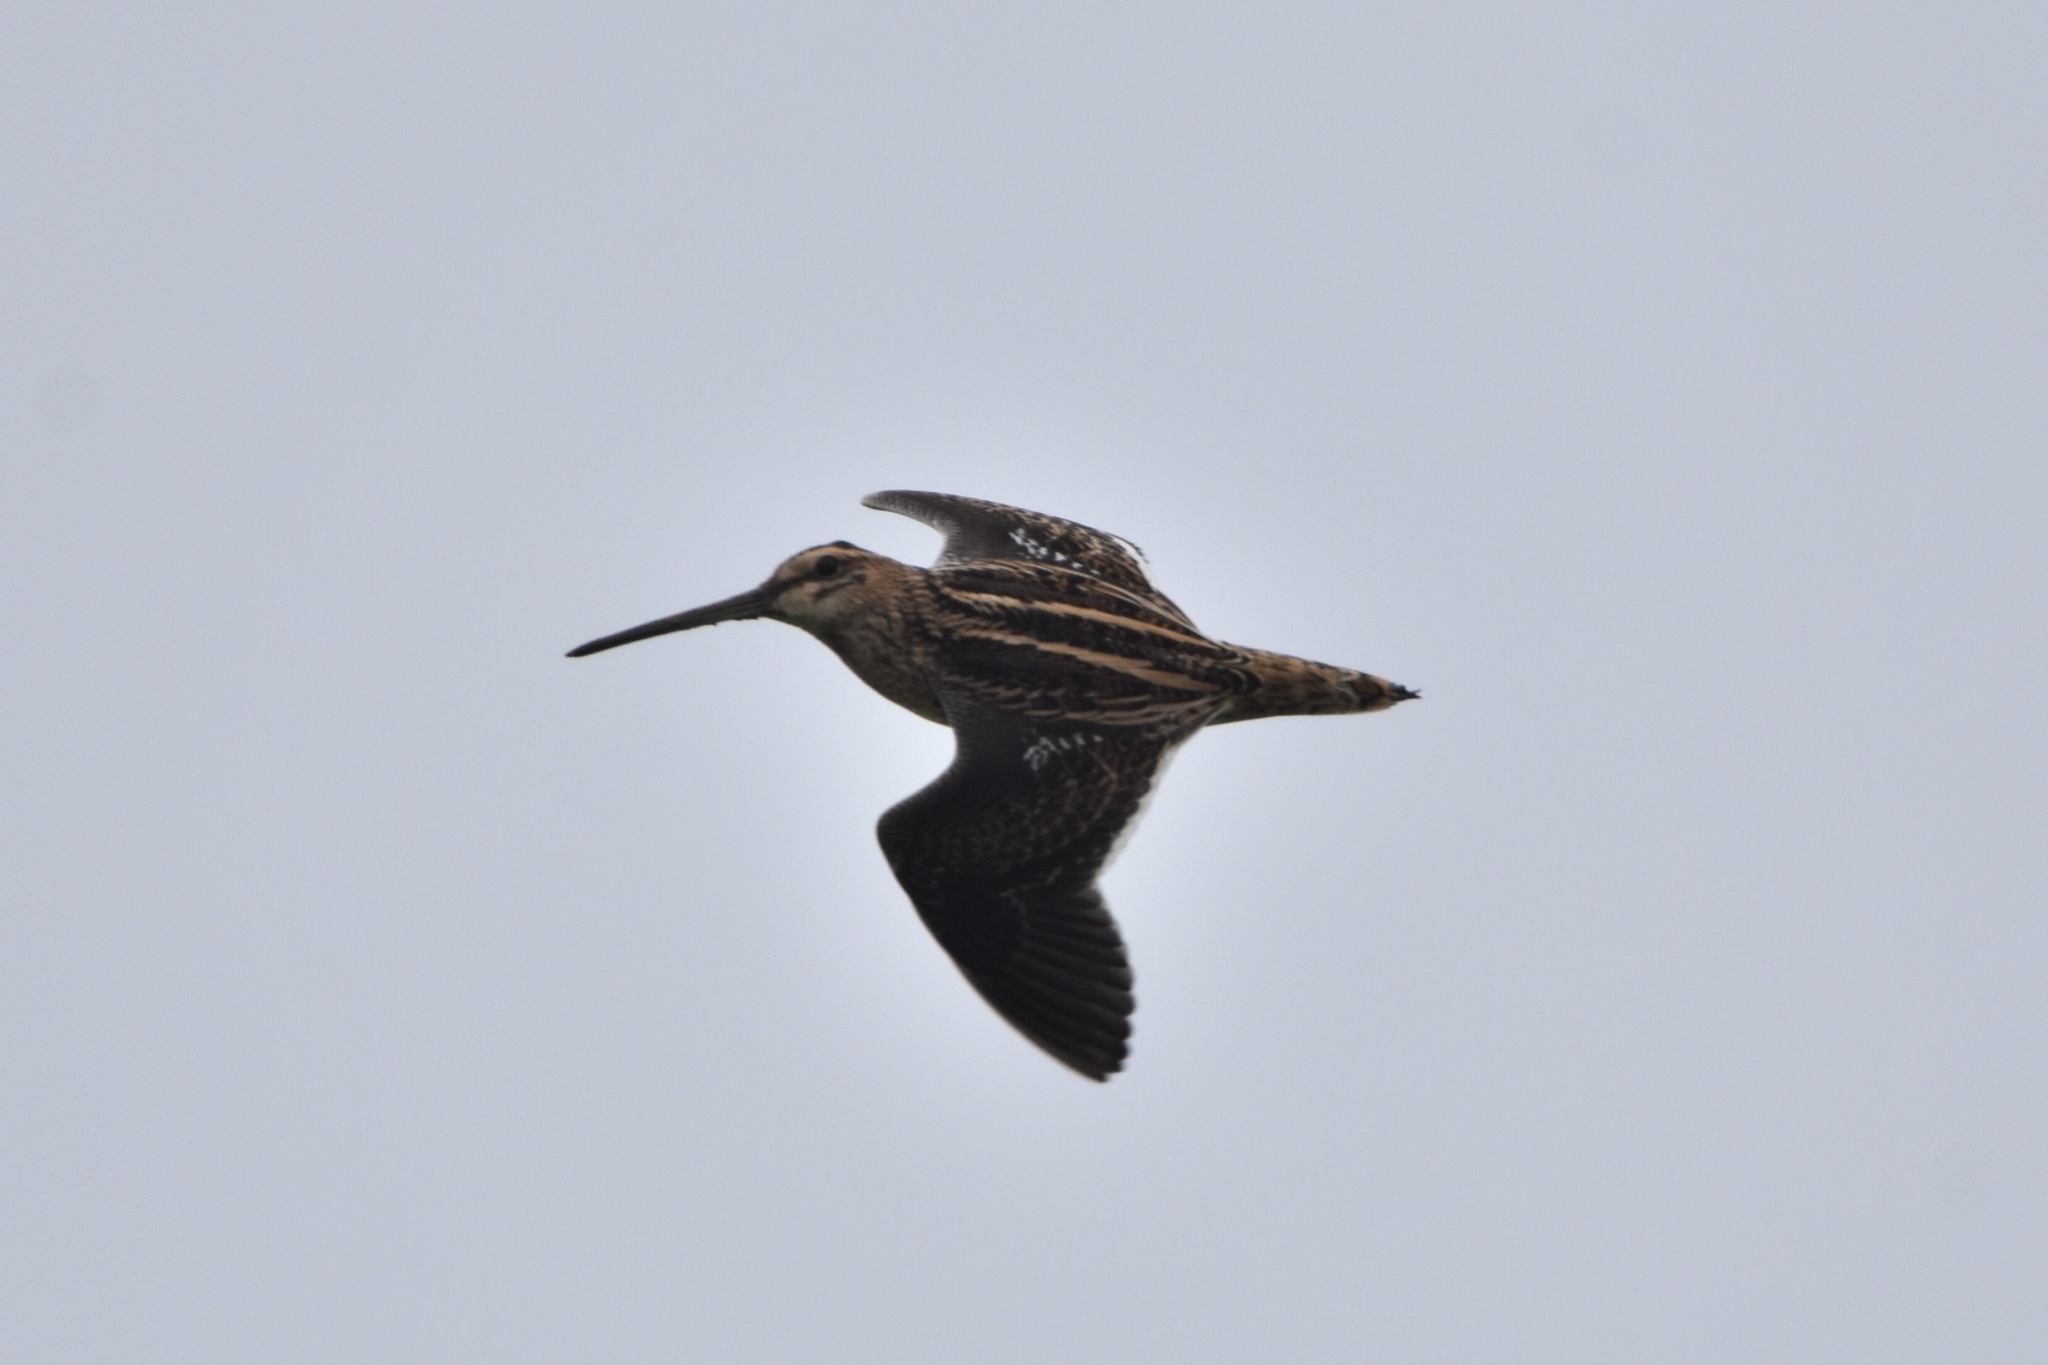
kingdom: Animalia
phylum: Chordata
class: Aves
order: Charadriiformes
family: Scolopacidae
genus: Gallinago
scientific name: Gallinago gallinago
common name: Common snipe
